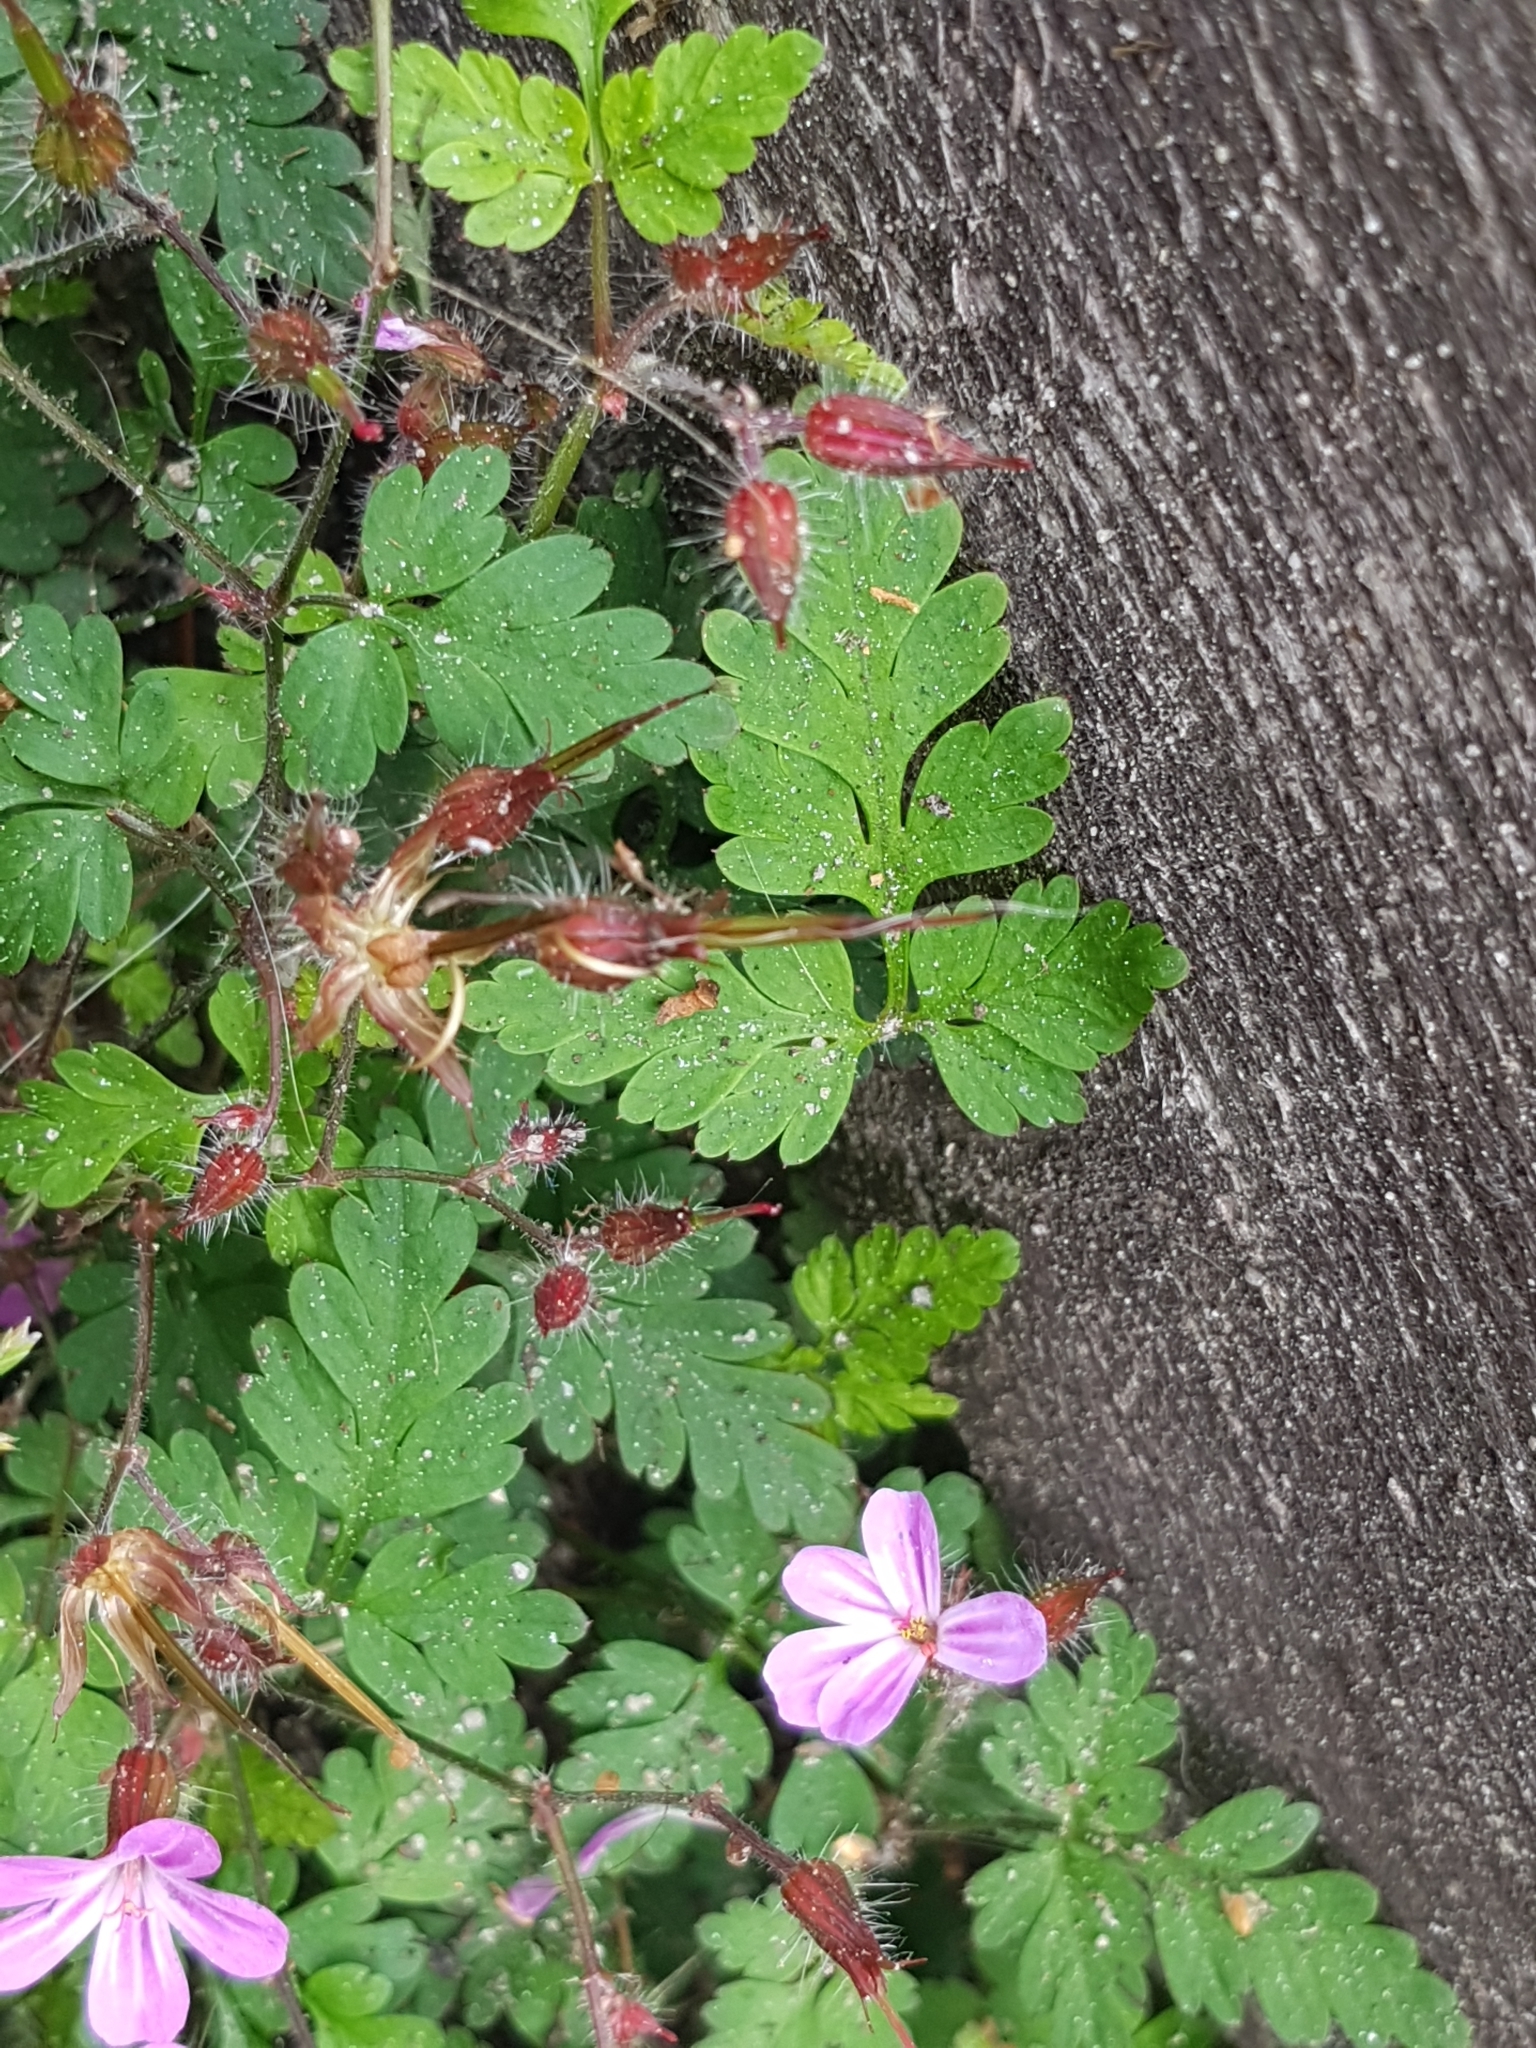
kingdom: Plantae
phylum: Tracheophyta
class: Magnoliopsida
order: Geraniales
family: Geraniaceae
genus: Geranium
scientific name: Geranium robertianum
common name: Herb-robert
